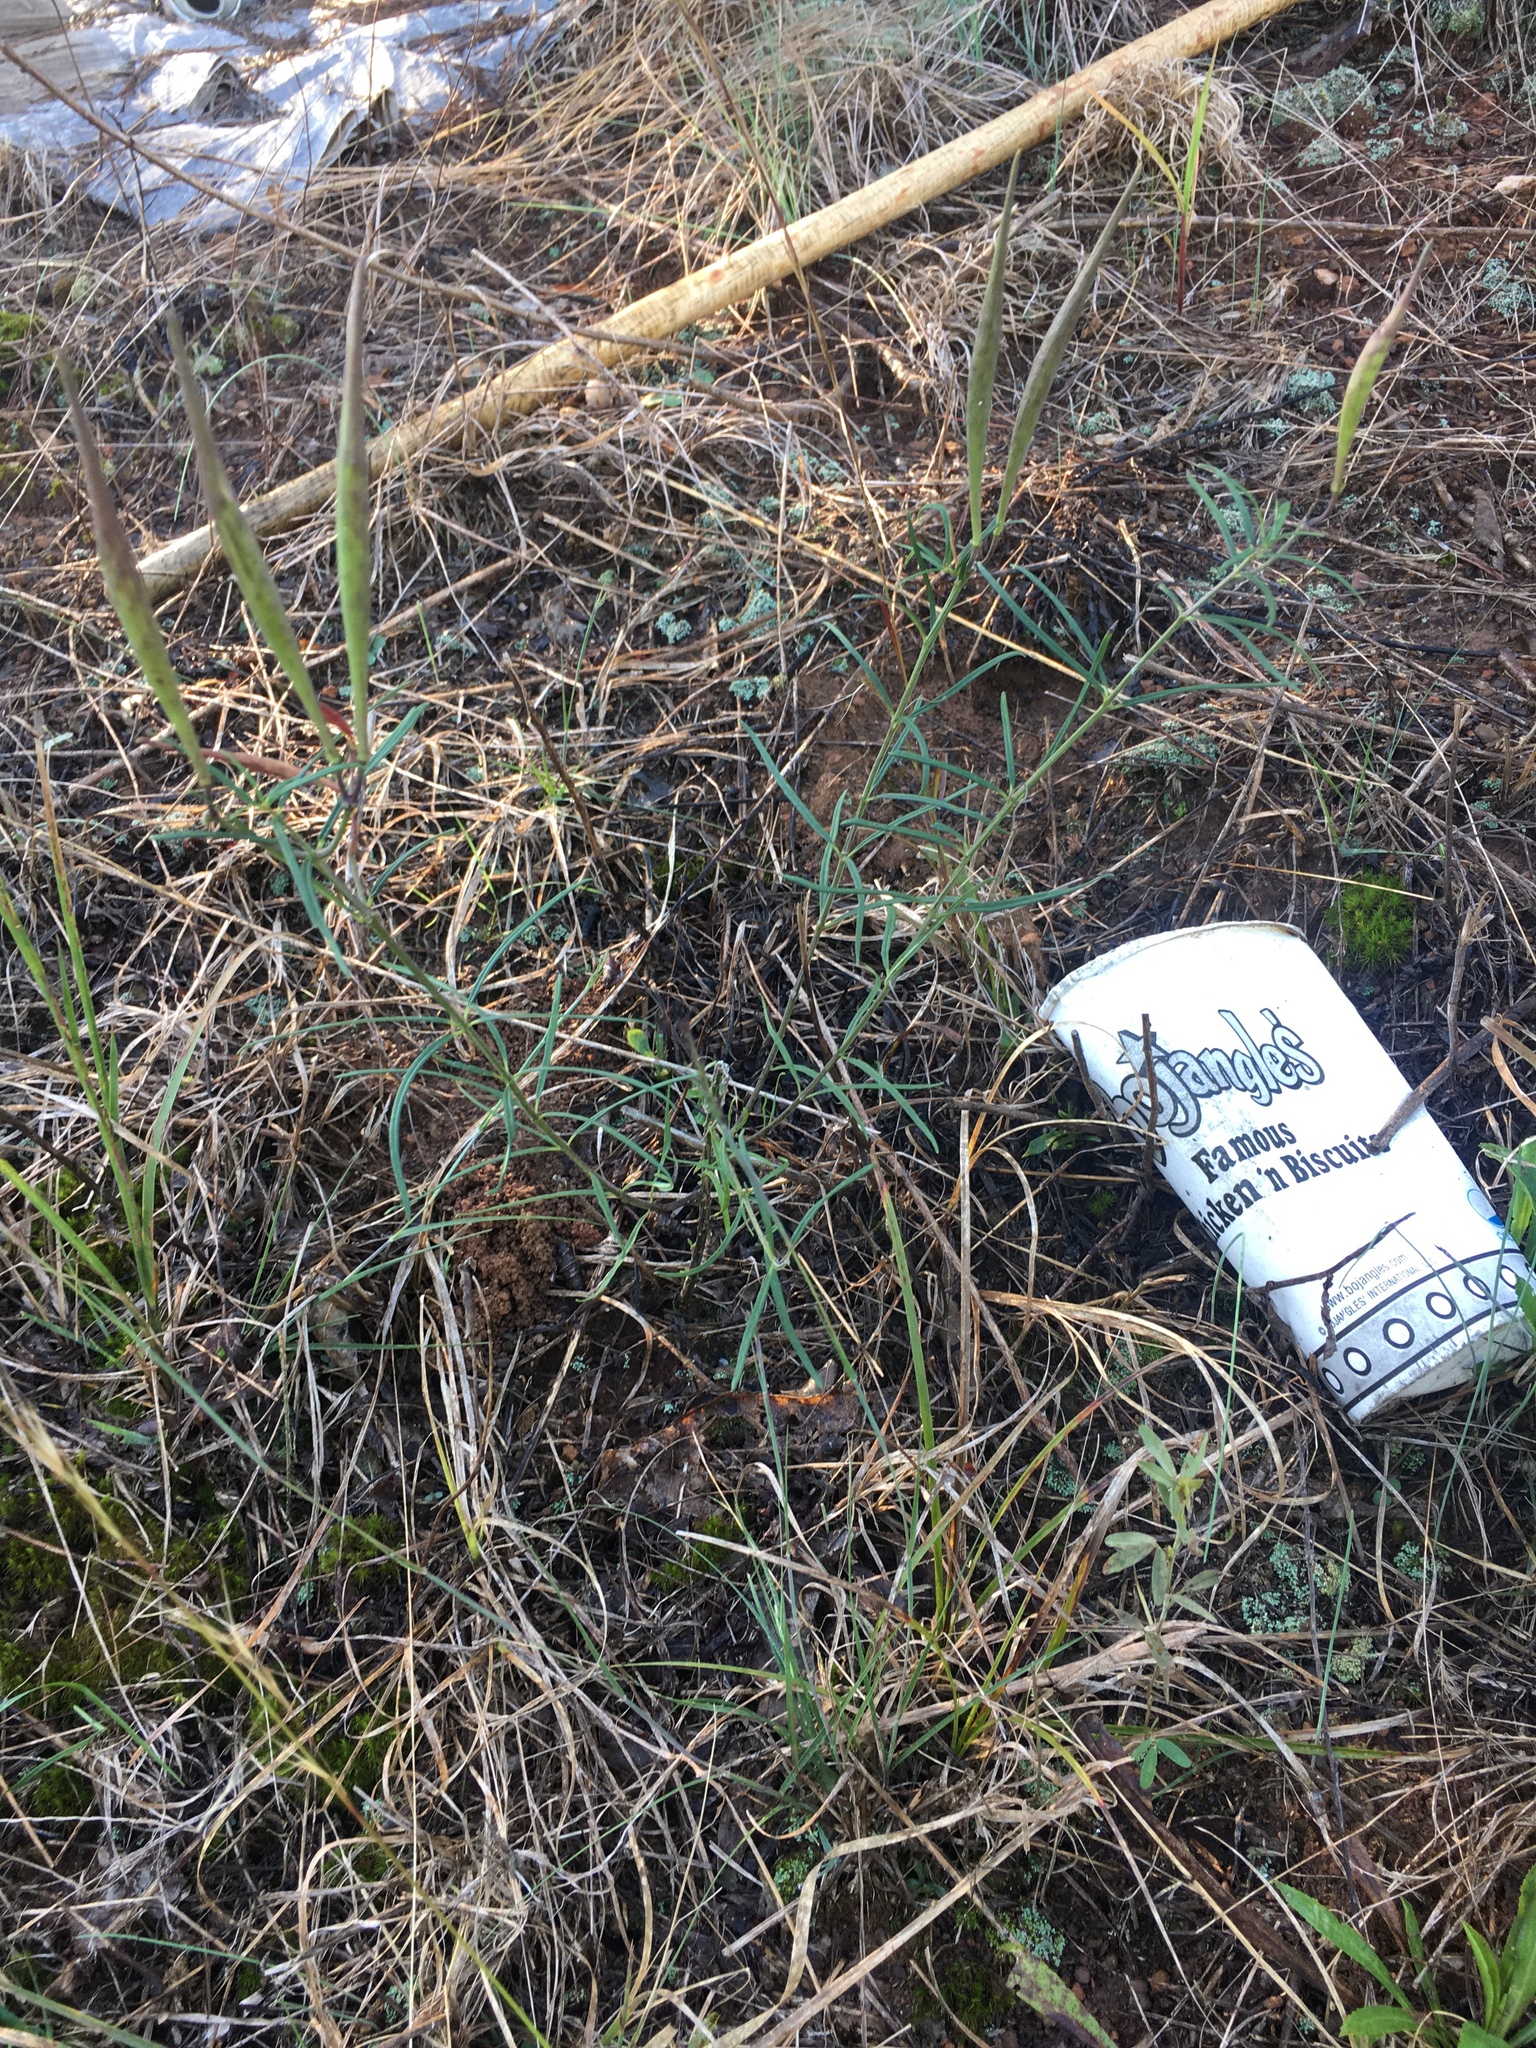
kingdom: Plantae
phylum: Tracheophyta
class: Magnoliopsida
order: Gentianales
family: Apocynaceae
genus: Asclepias
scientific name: Asclepias verticillata
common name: Eastern whorled milkweed
